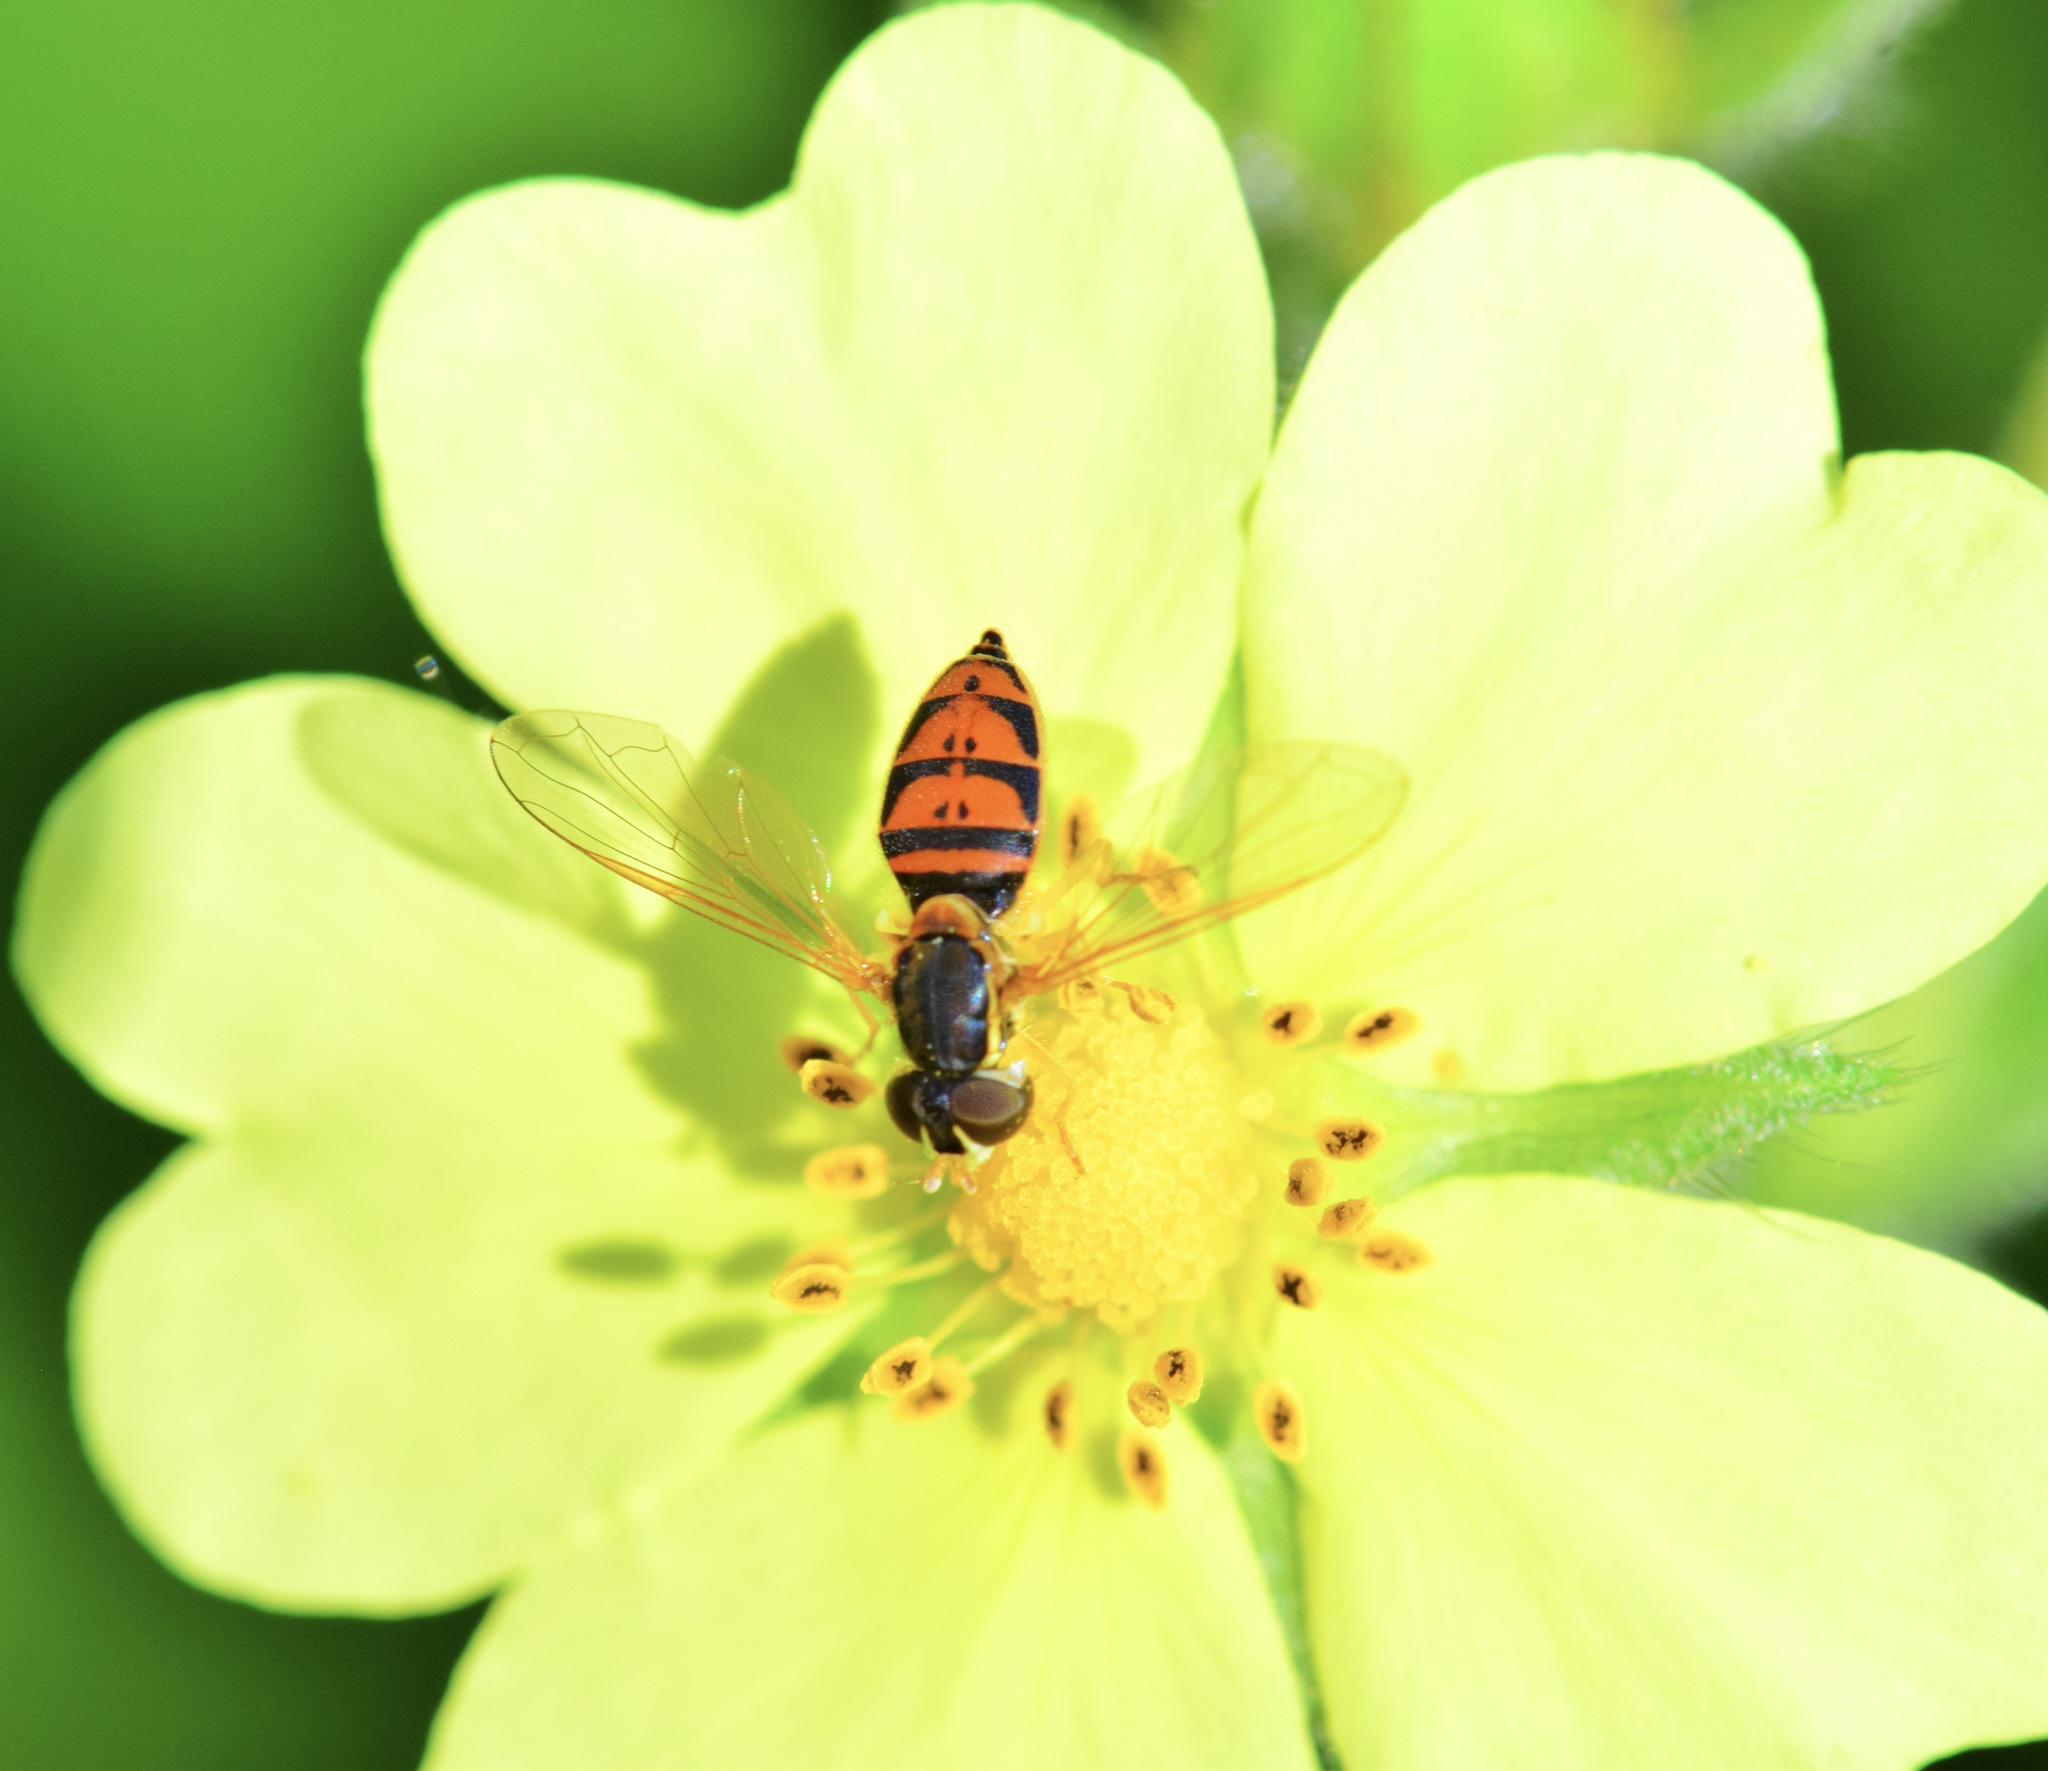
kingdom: Animalia
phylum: Arthropoda
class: Insecta
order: Diptera
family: Syrphidae
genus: Toxomerus
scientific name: Toxomerus marginatus
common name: Syrphid fly
